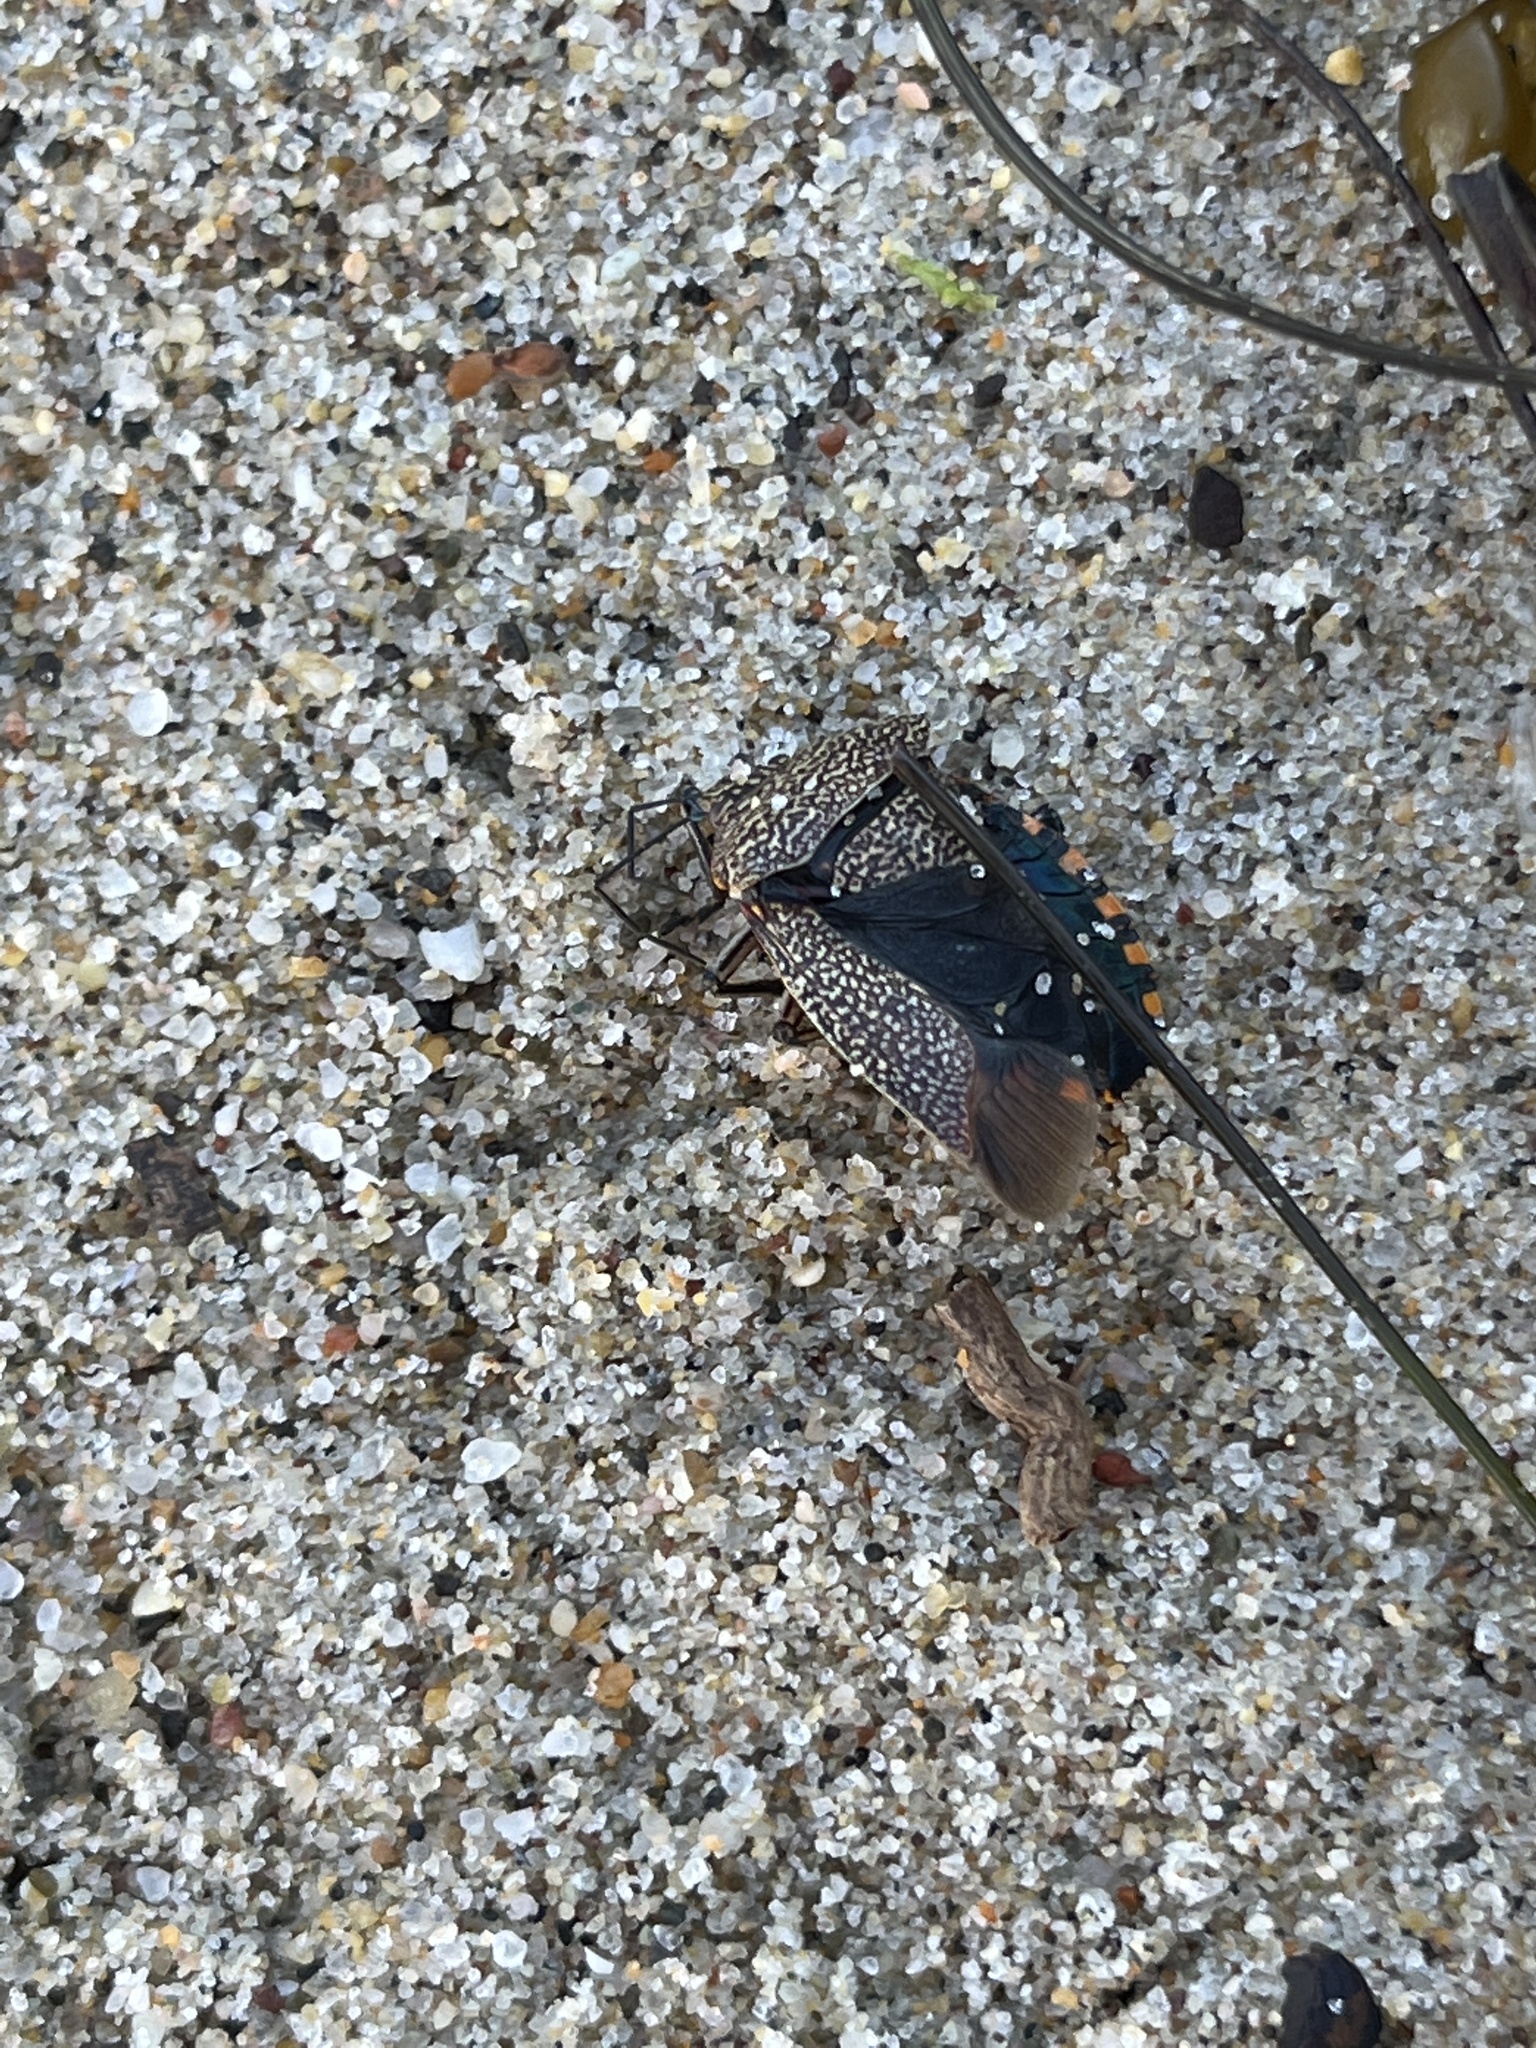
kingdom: Animalia
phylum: Arthropoda
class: Insecta
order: Hemiptera
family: Pentatomidae
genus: Pellaea
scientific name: Pellaea stictica
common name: Stink bug
